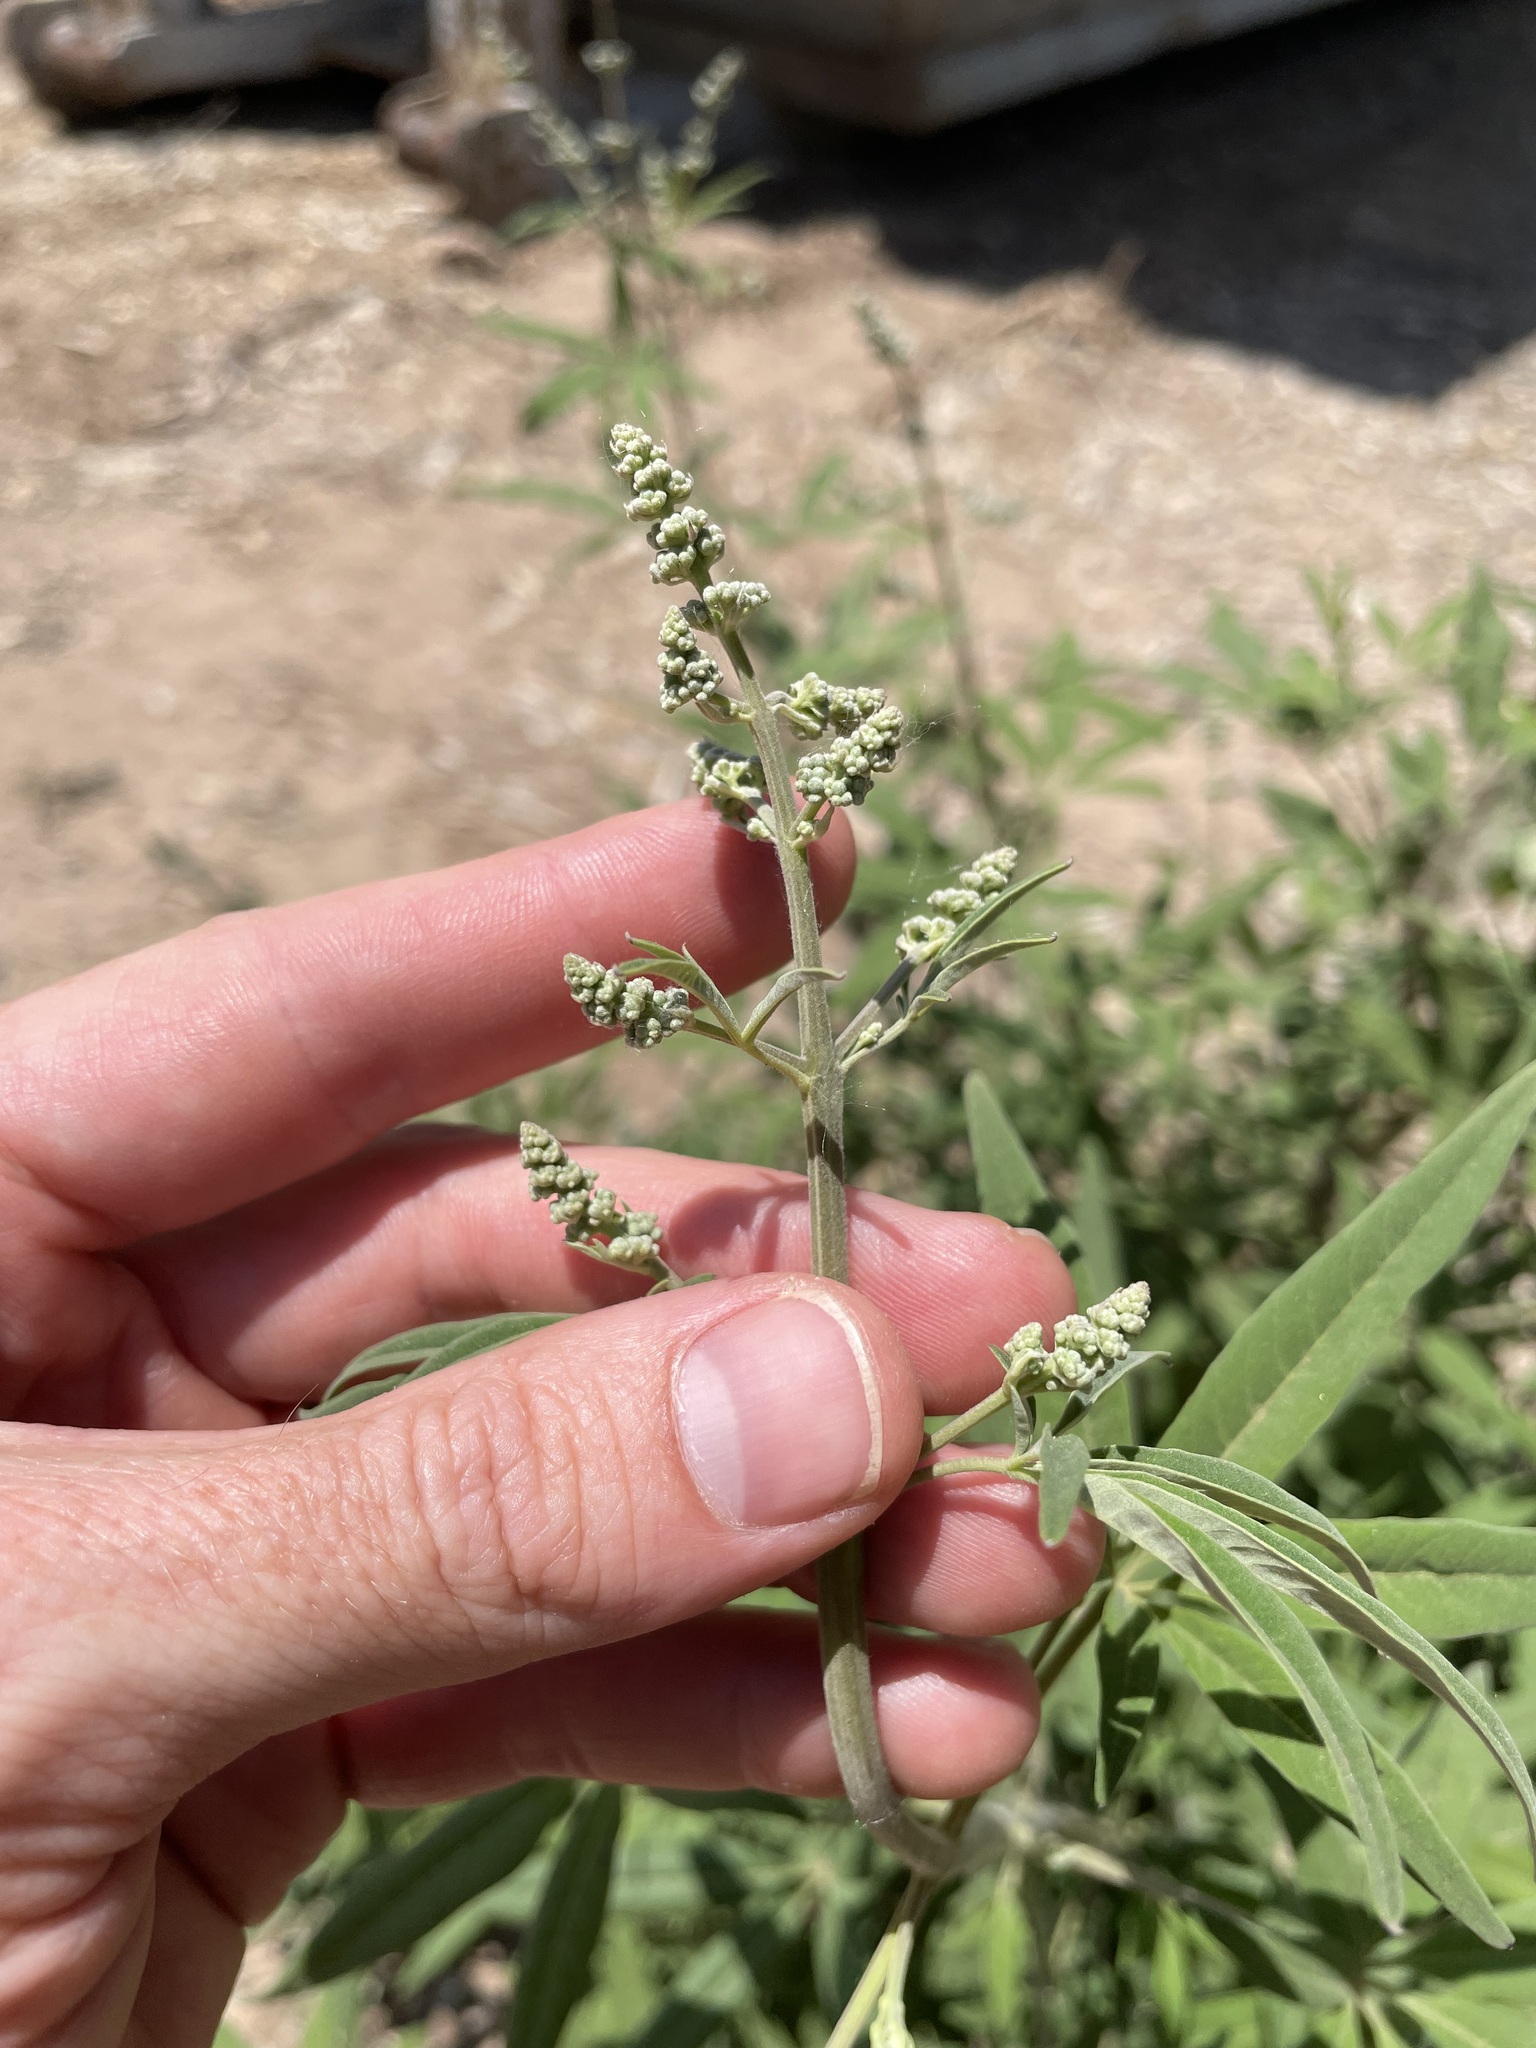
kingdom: Plantae
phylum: Tracheophyta
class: Magnoliopsida
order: Lamiales
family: Lamiaceae
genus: Vitex
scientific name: Vitex agnus-castus
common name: Chasteberry
